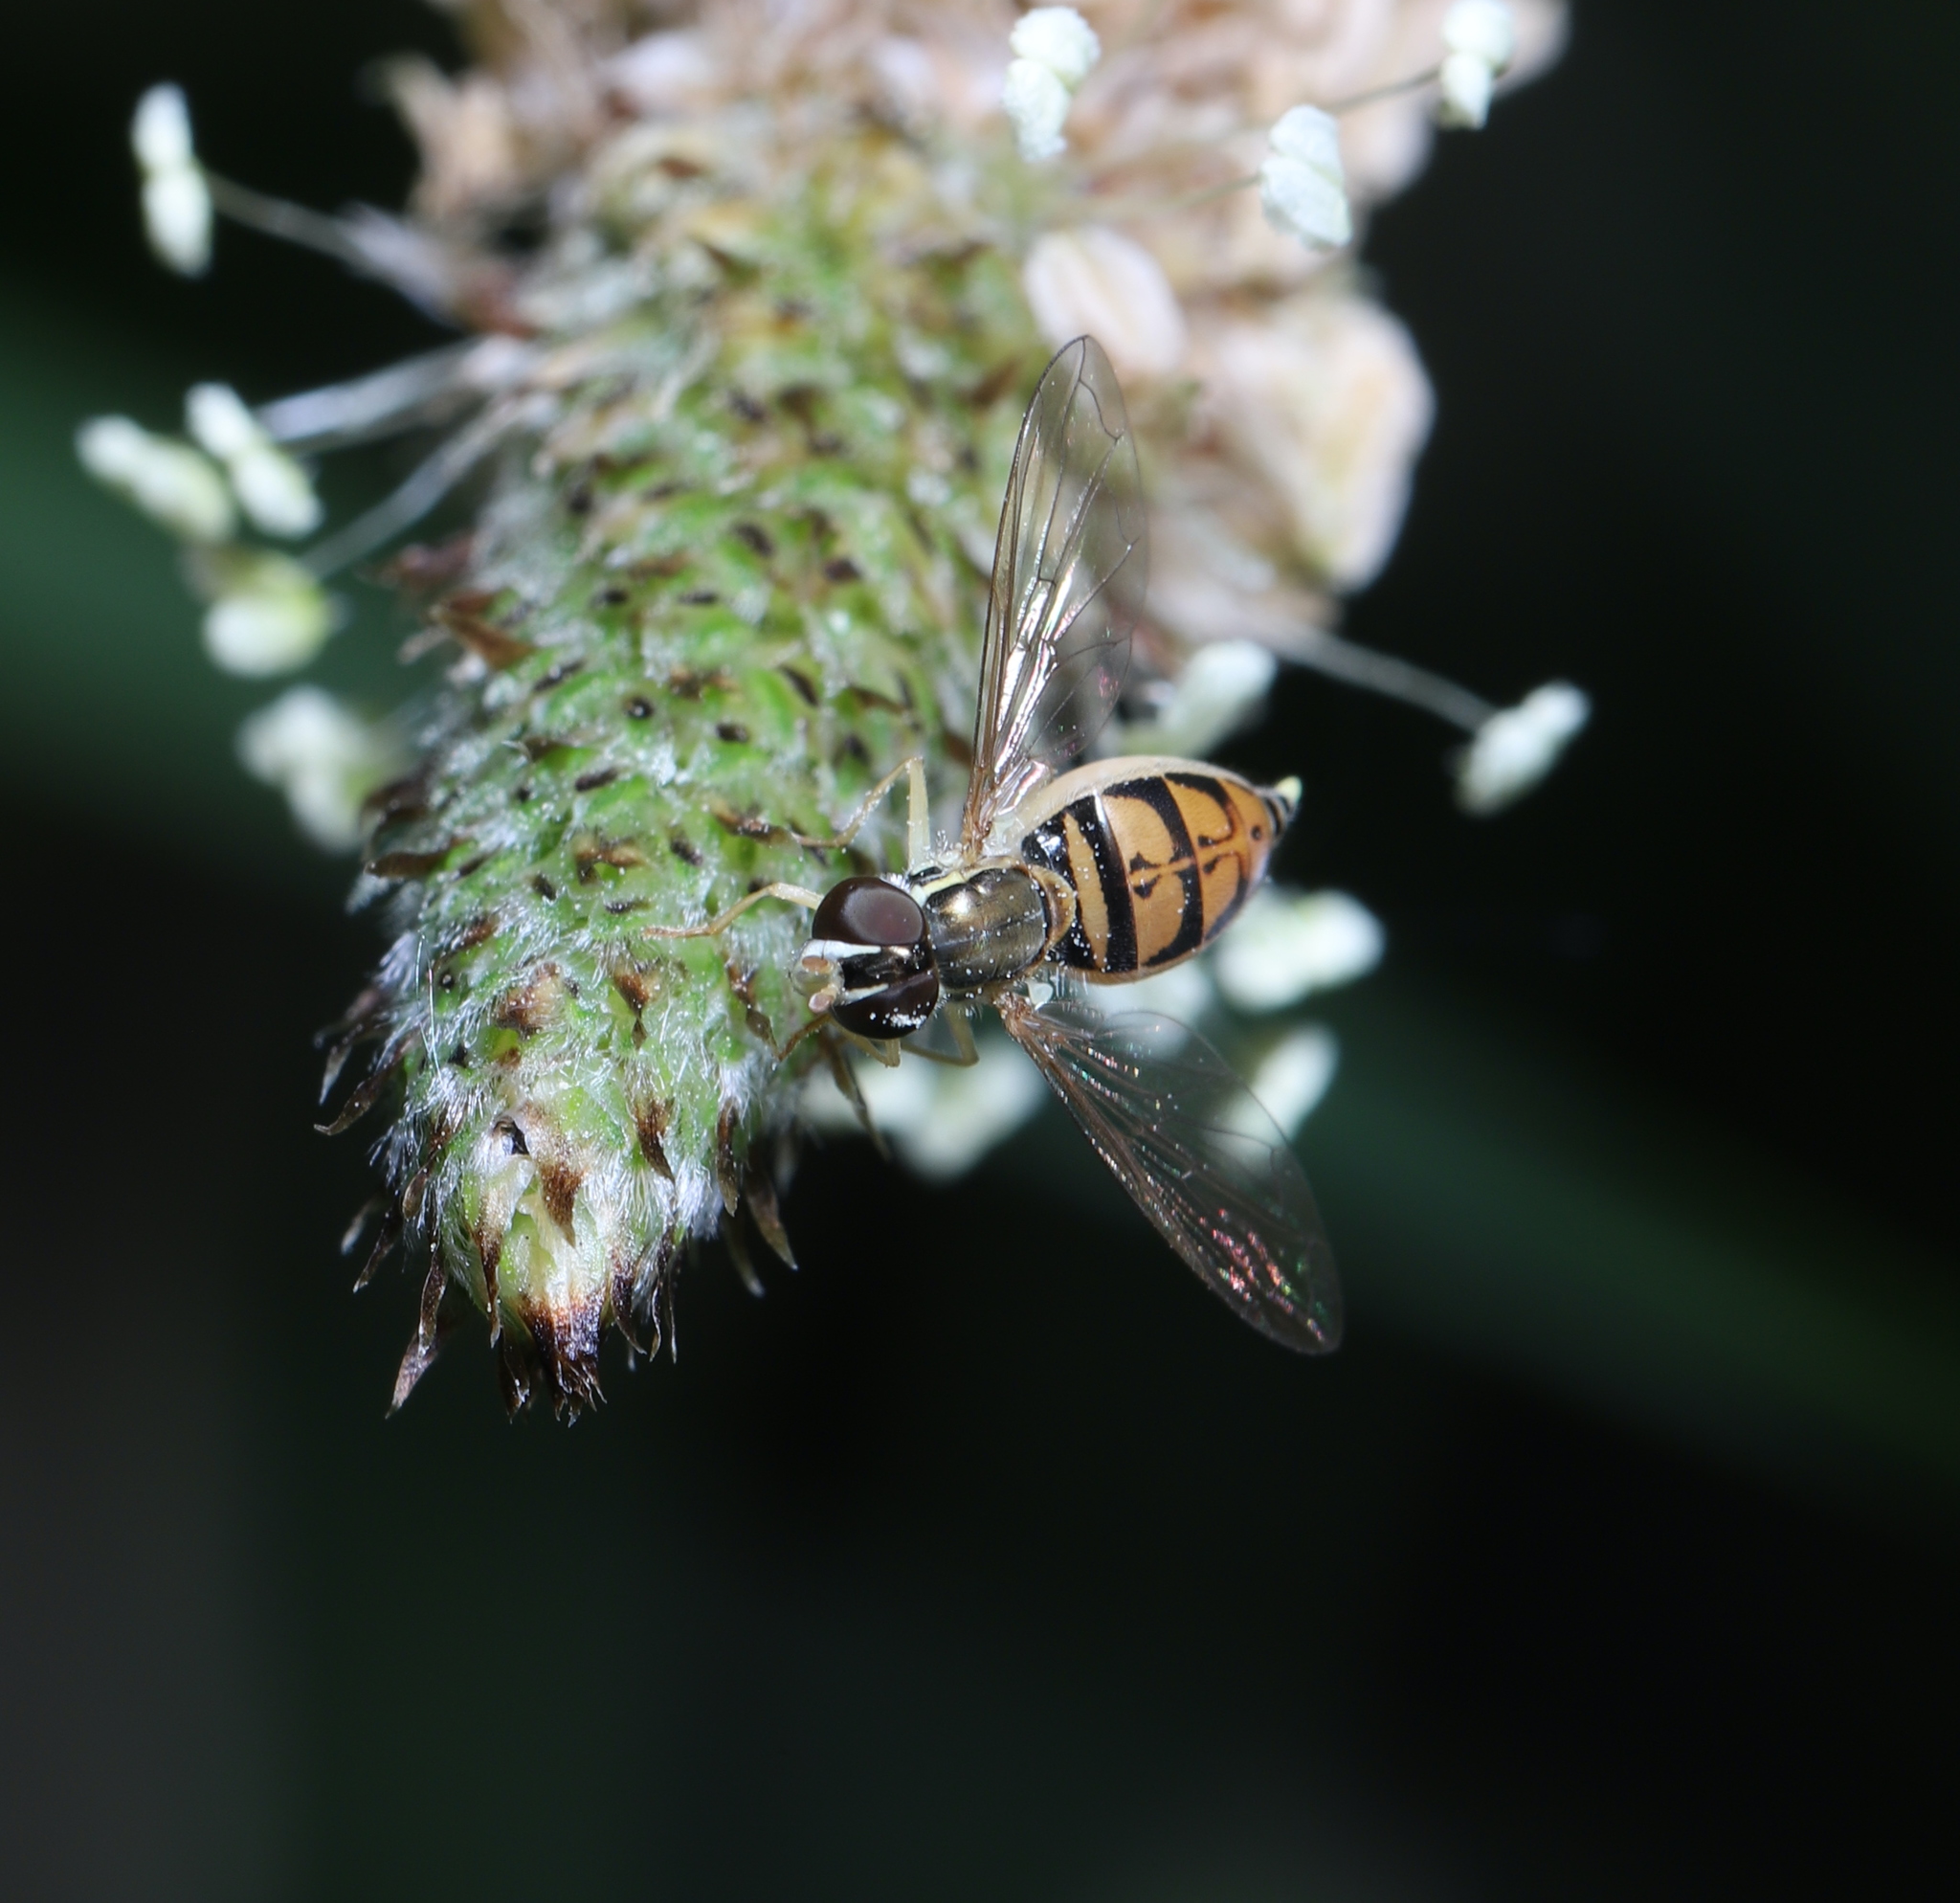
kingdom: Animalia
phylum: Arthropoda
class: Insecta
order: Diptera
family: Syrphidae
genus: Toxomerus
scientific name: Toxomerus marginatus
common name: Syrphid fly
